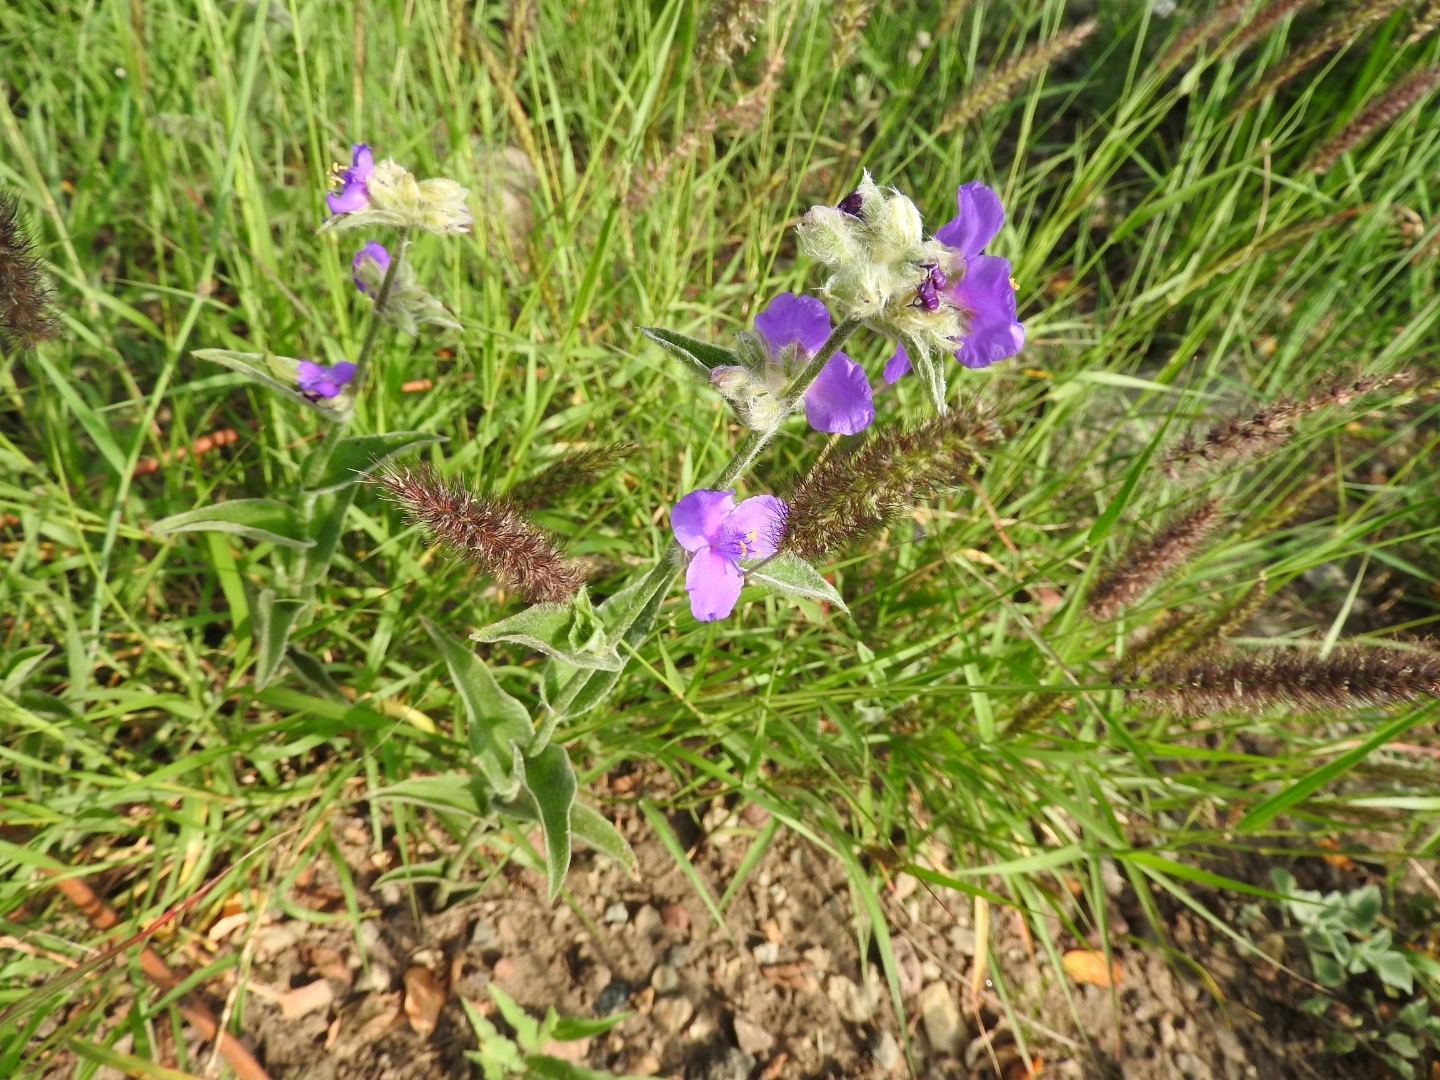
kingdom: Plantae
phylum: Tracheophyta
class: Liliopsida
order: Commelinales
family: Commelinaceae
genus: Tradescantia
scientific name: Tradescantia crassifolia
